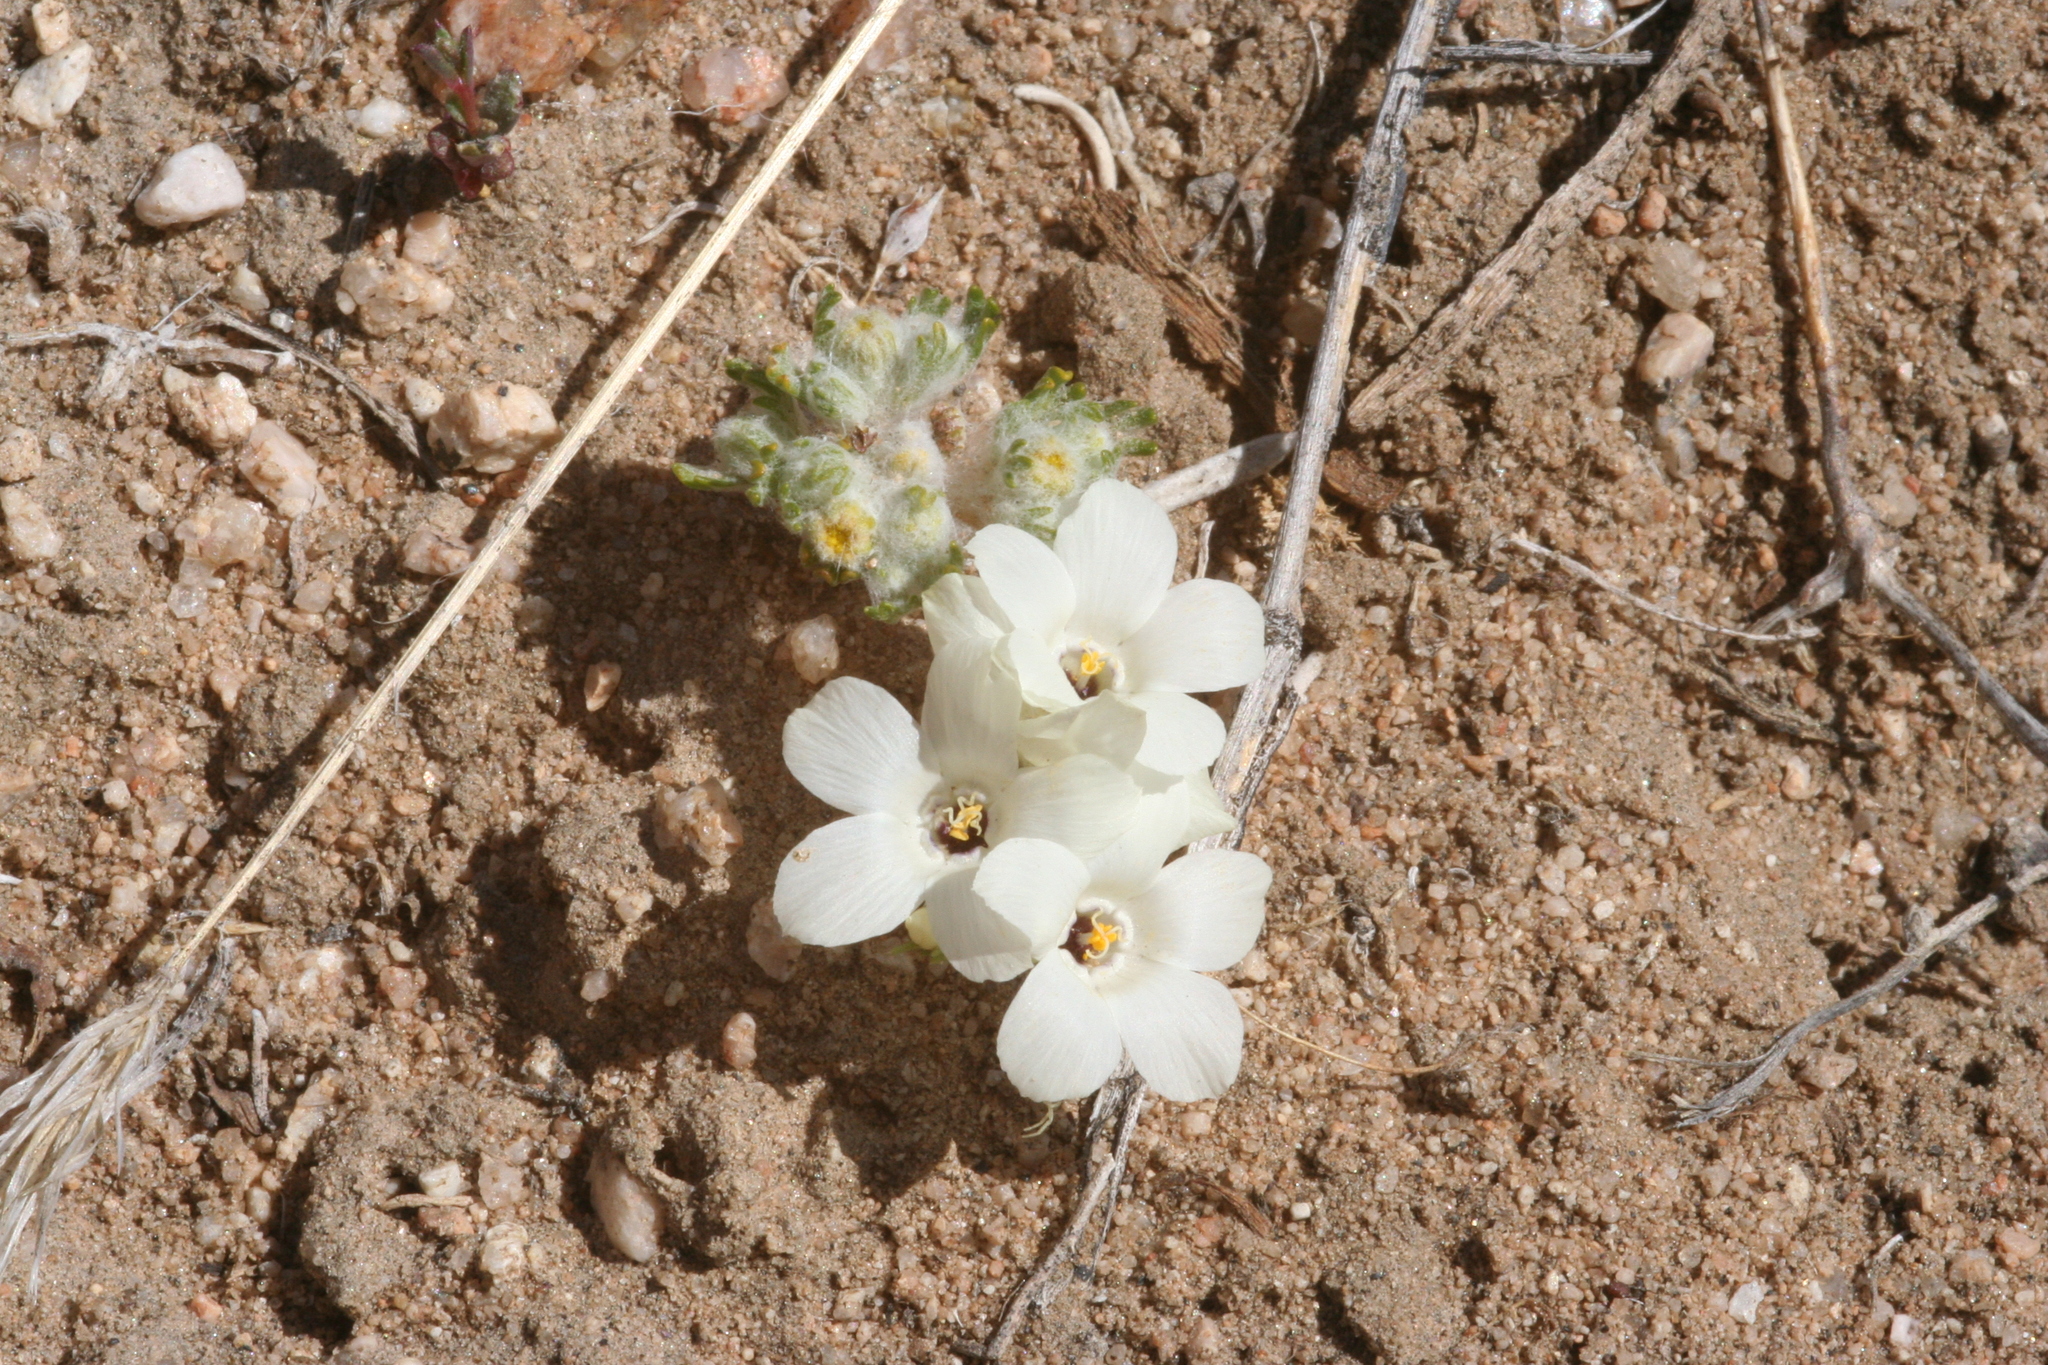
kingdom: Plantae
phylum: Tracheophyta
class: Magnoliopsida
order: Ericales
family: Polemoniaceae
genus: Linanthus
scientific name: Linanthus parryae
